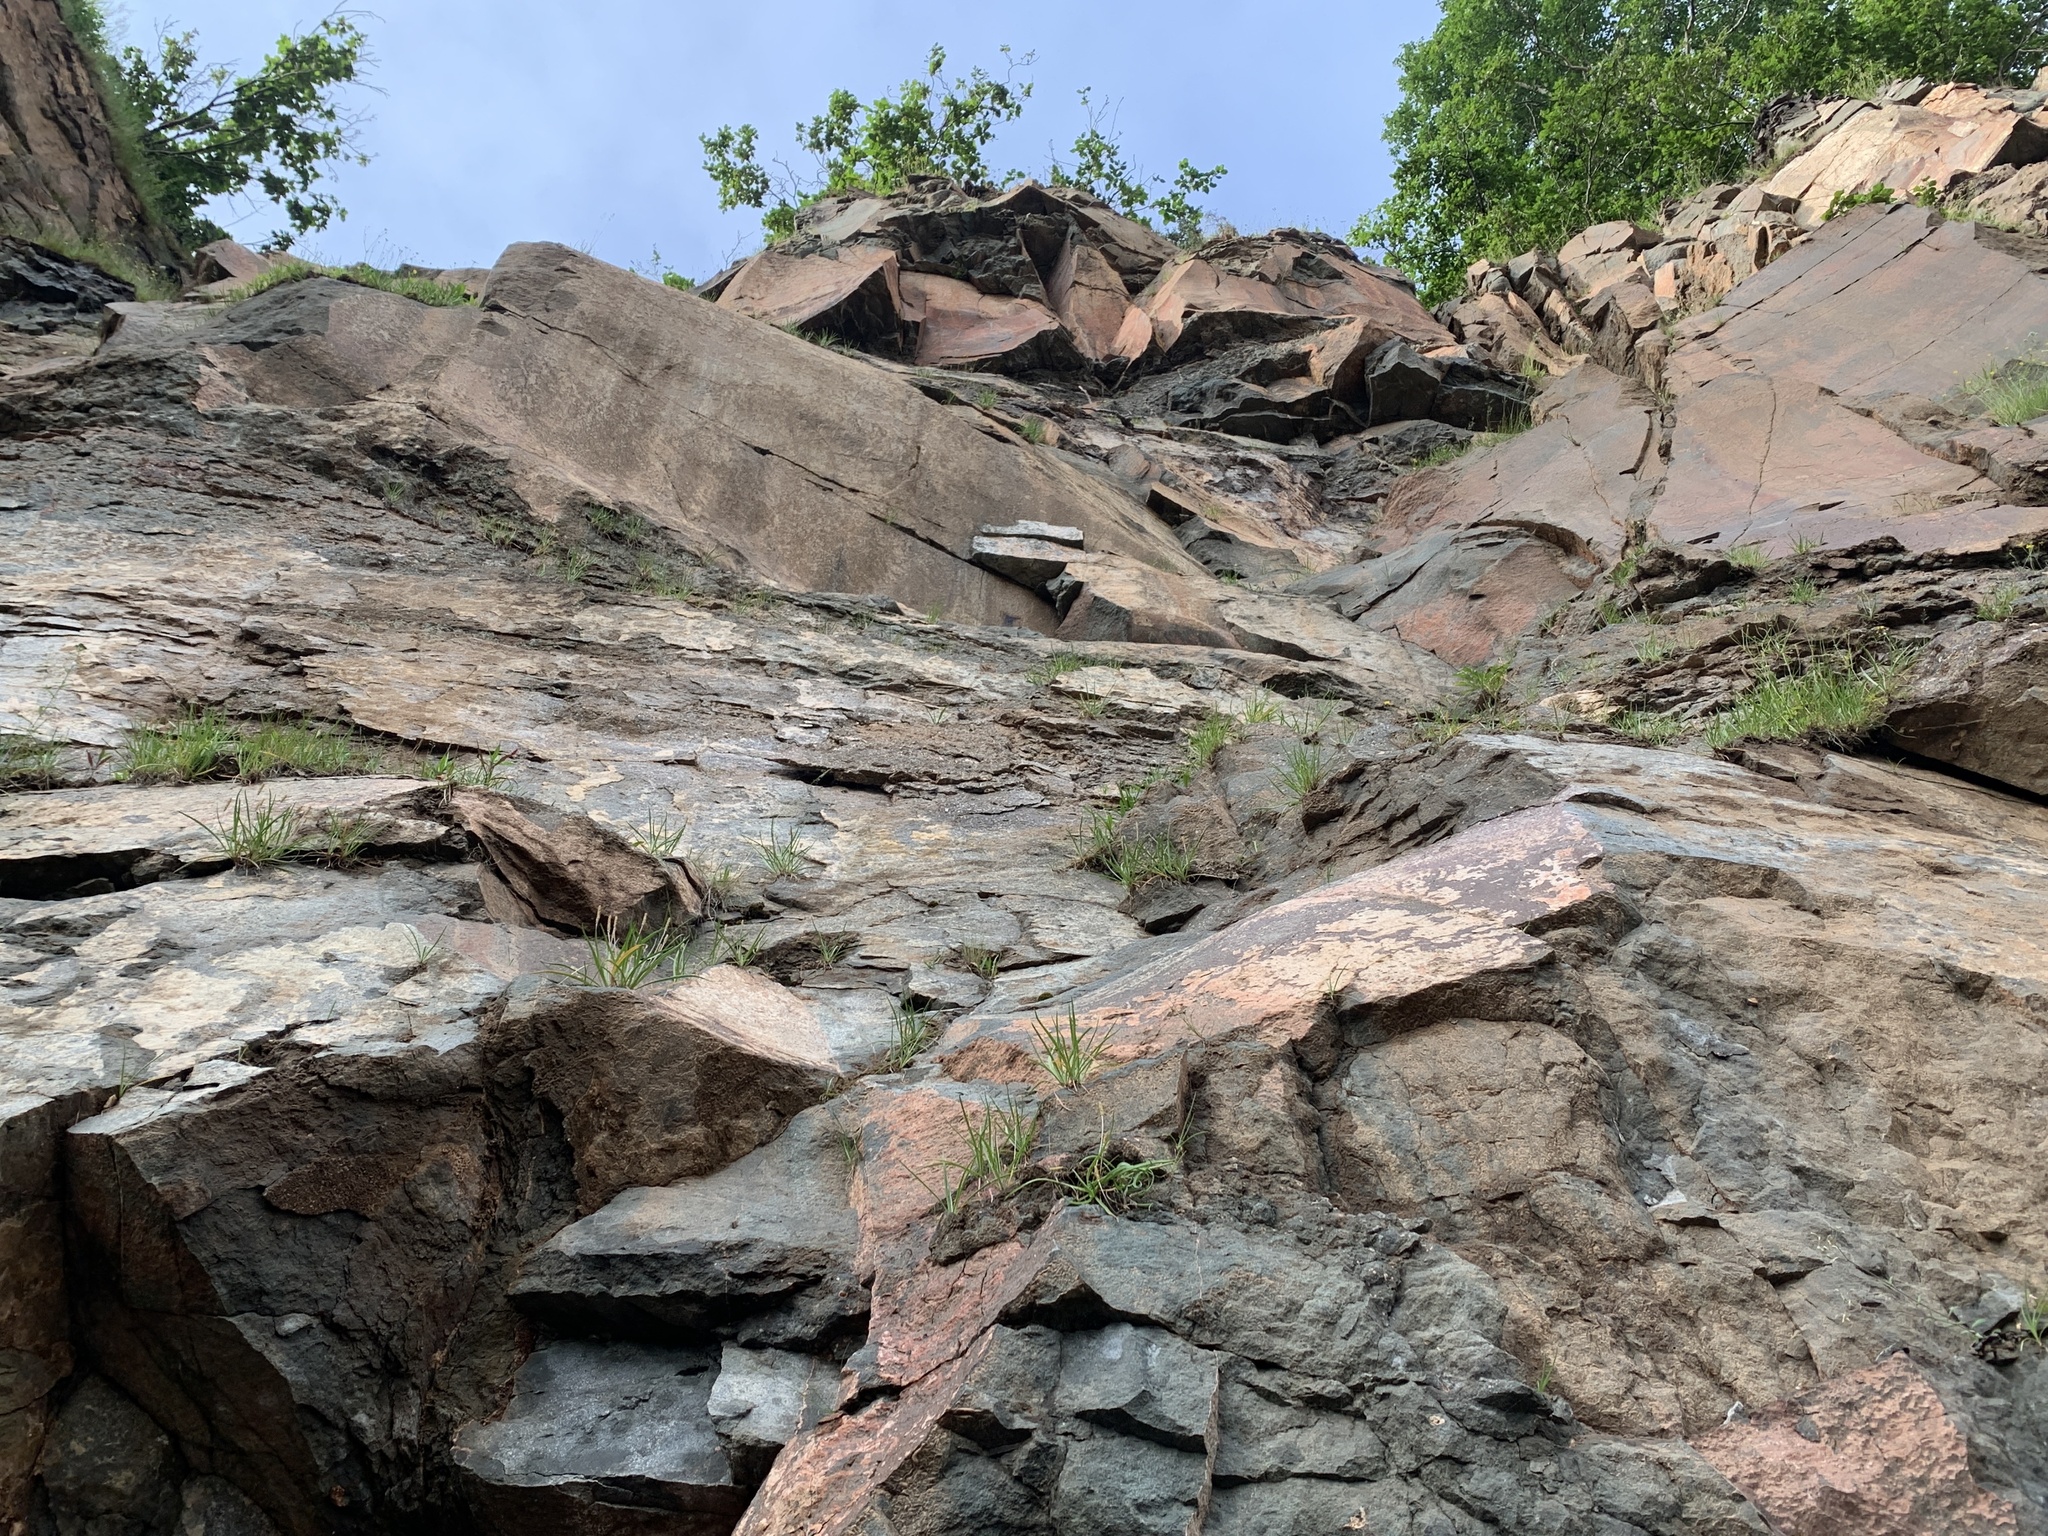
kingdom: Plantae
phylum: Tracheophyta
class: Magnoliopsida
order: Lamiales
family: Plantaginaceae
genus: Plantago
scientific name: Plantago maritima
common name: Sea plantain
